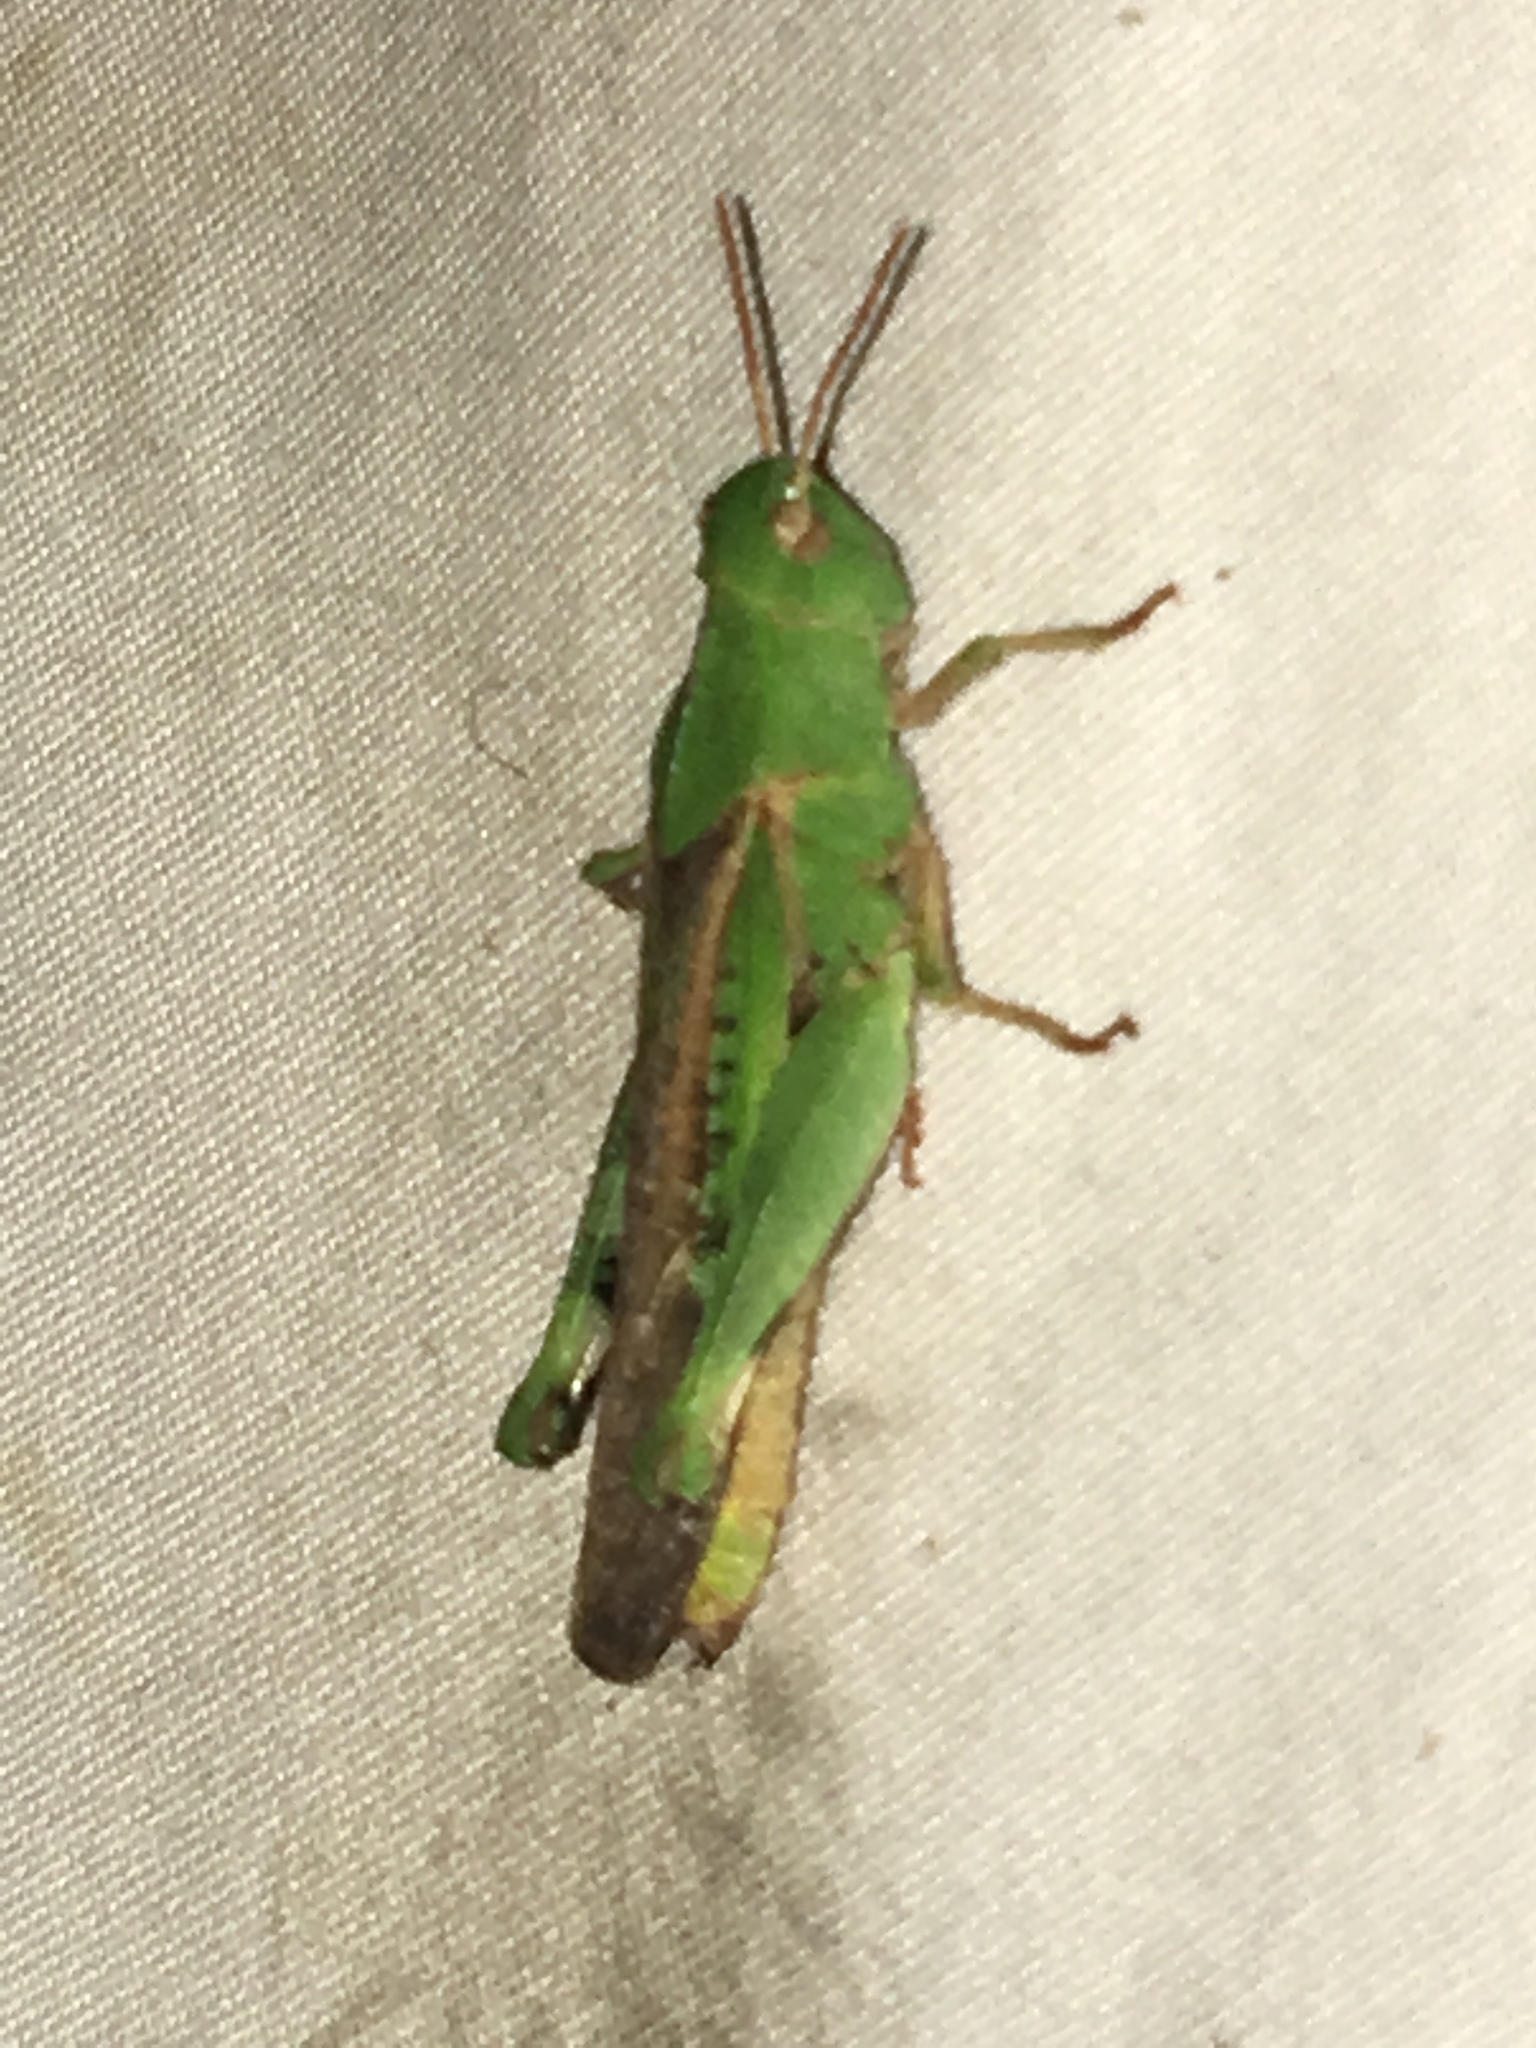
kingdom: Animalia
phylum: Arthropoda
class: Insecta
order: Orthoptera
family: Acrididae
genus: Chortophaga
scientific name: Chortophaga viridifasciata
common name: Green-striped grasshopper
